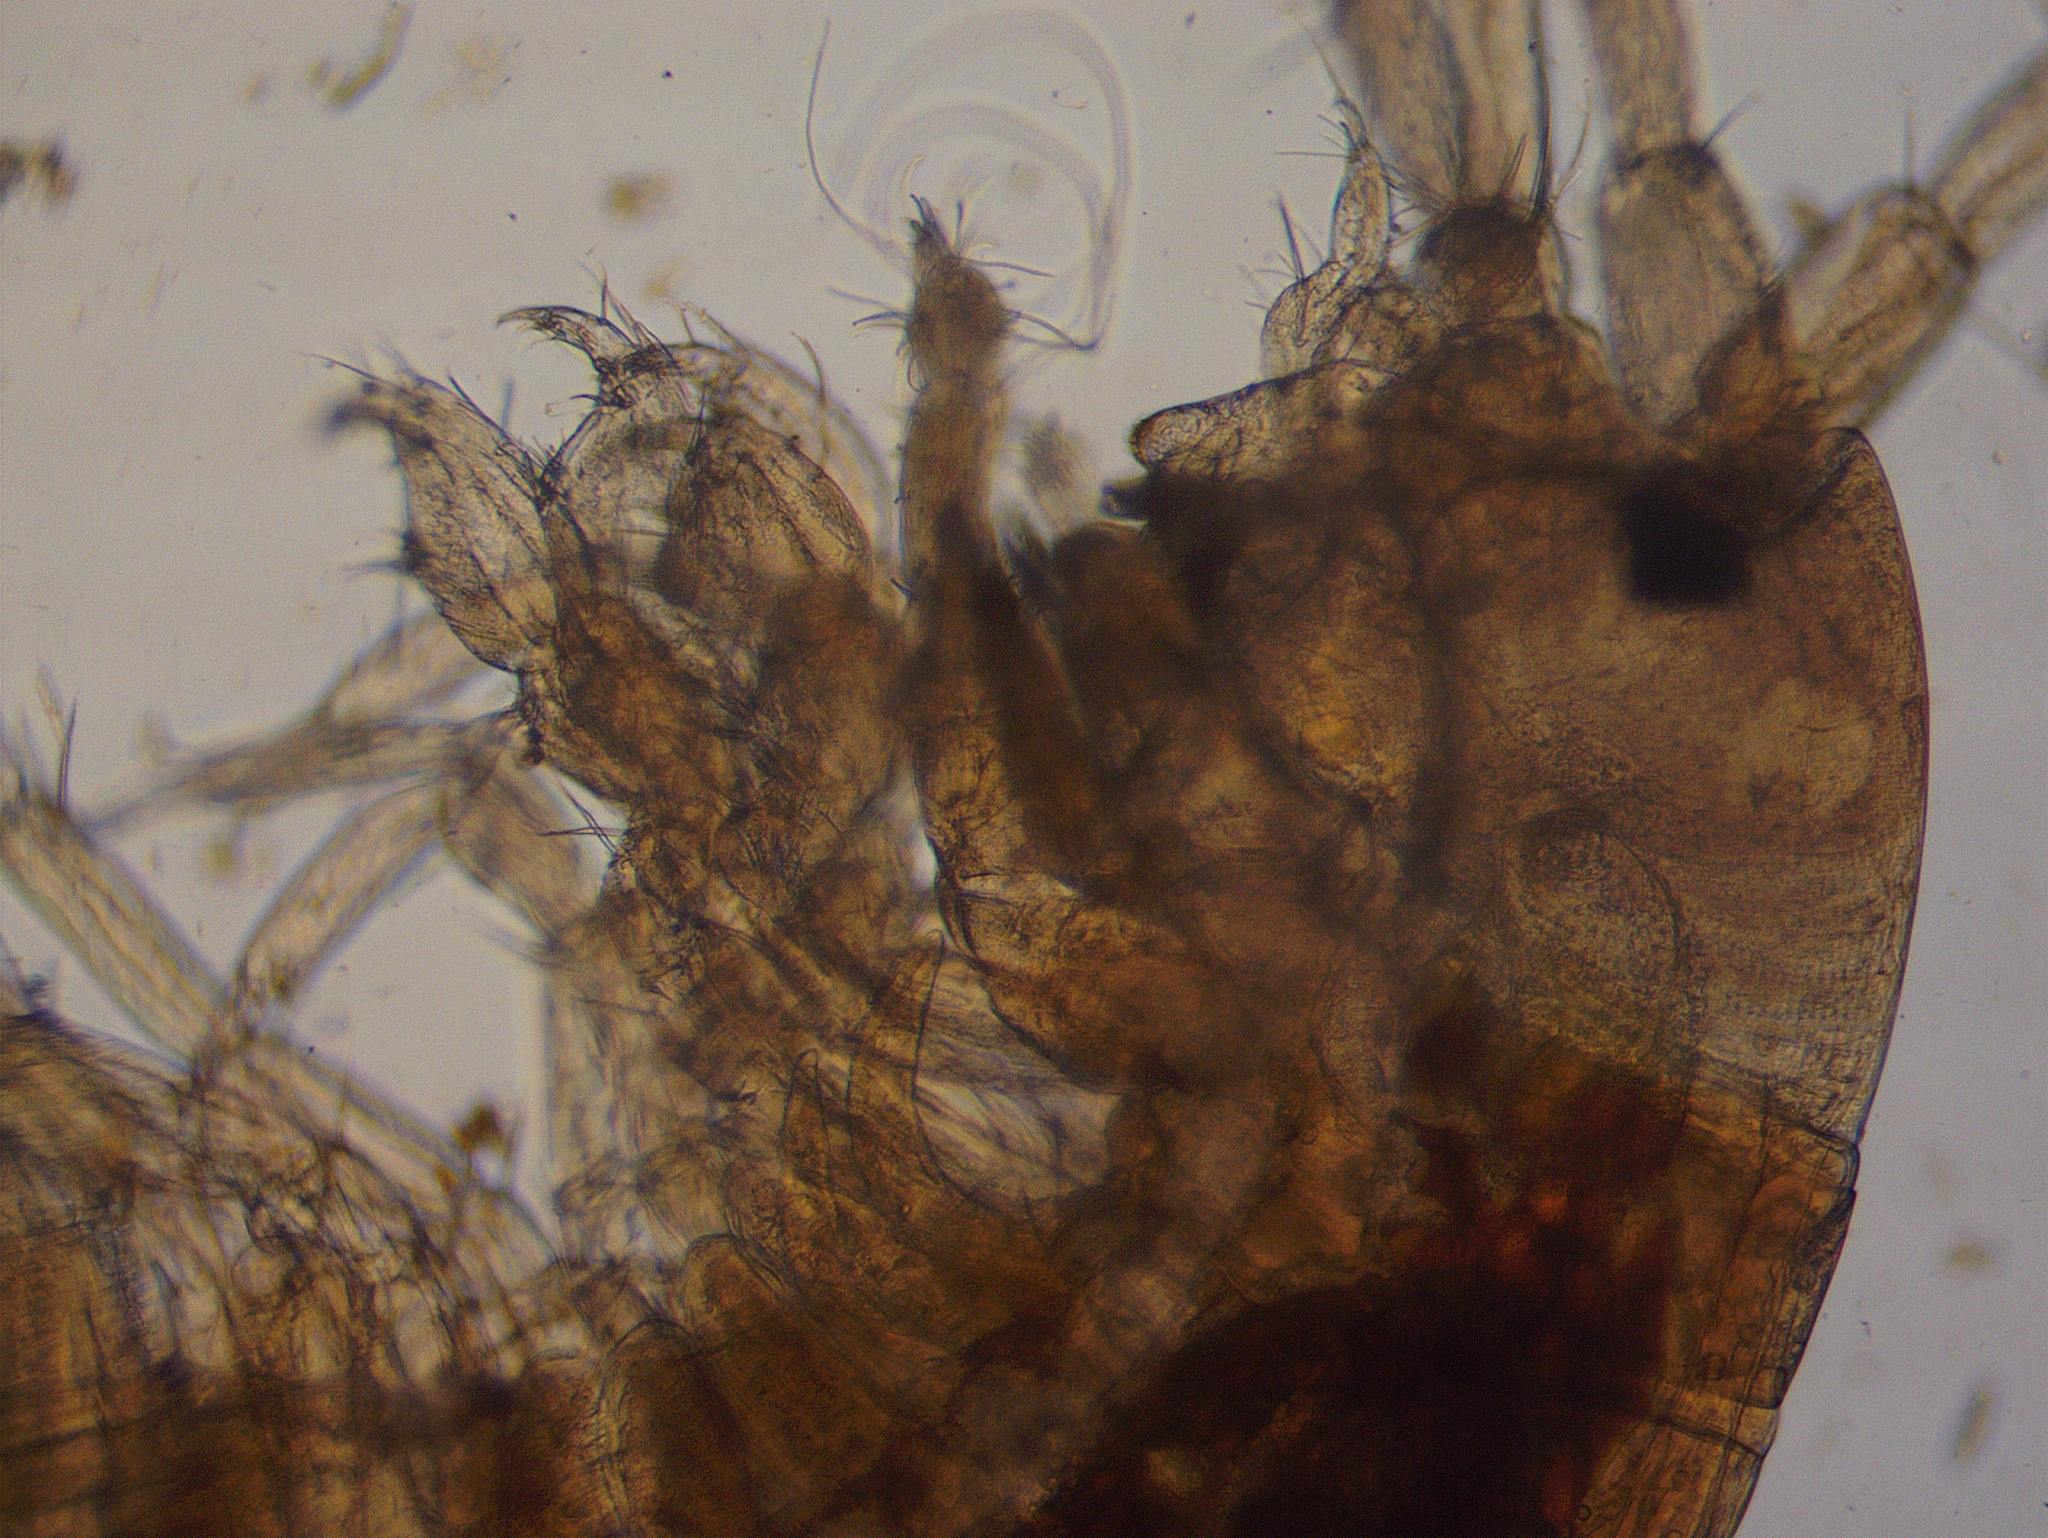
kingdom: Animalia
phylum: Arthropoda
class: Malacostraca
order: Amphipoda
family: Crangonyctidae
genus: Sicifera
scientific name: Sicifera chamberlaini
